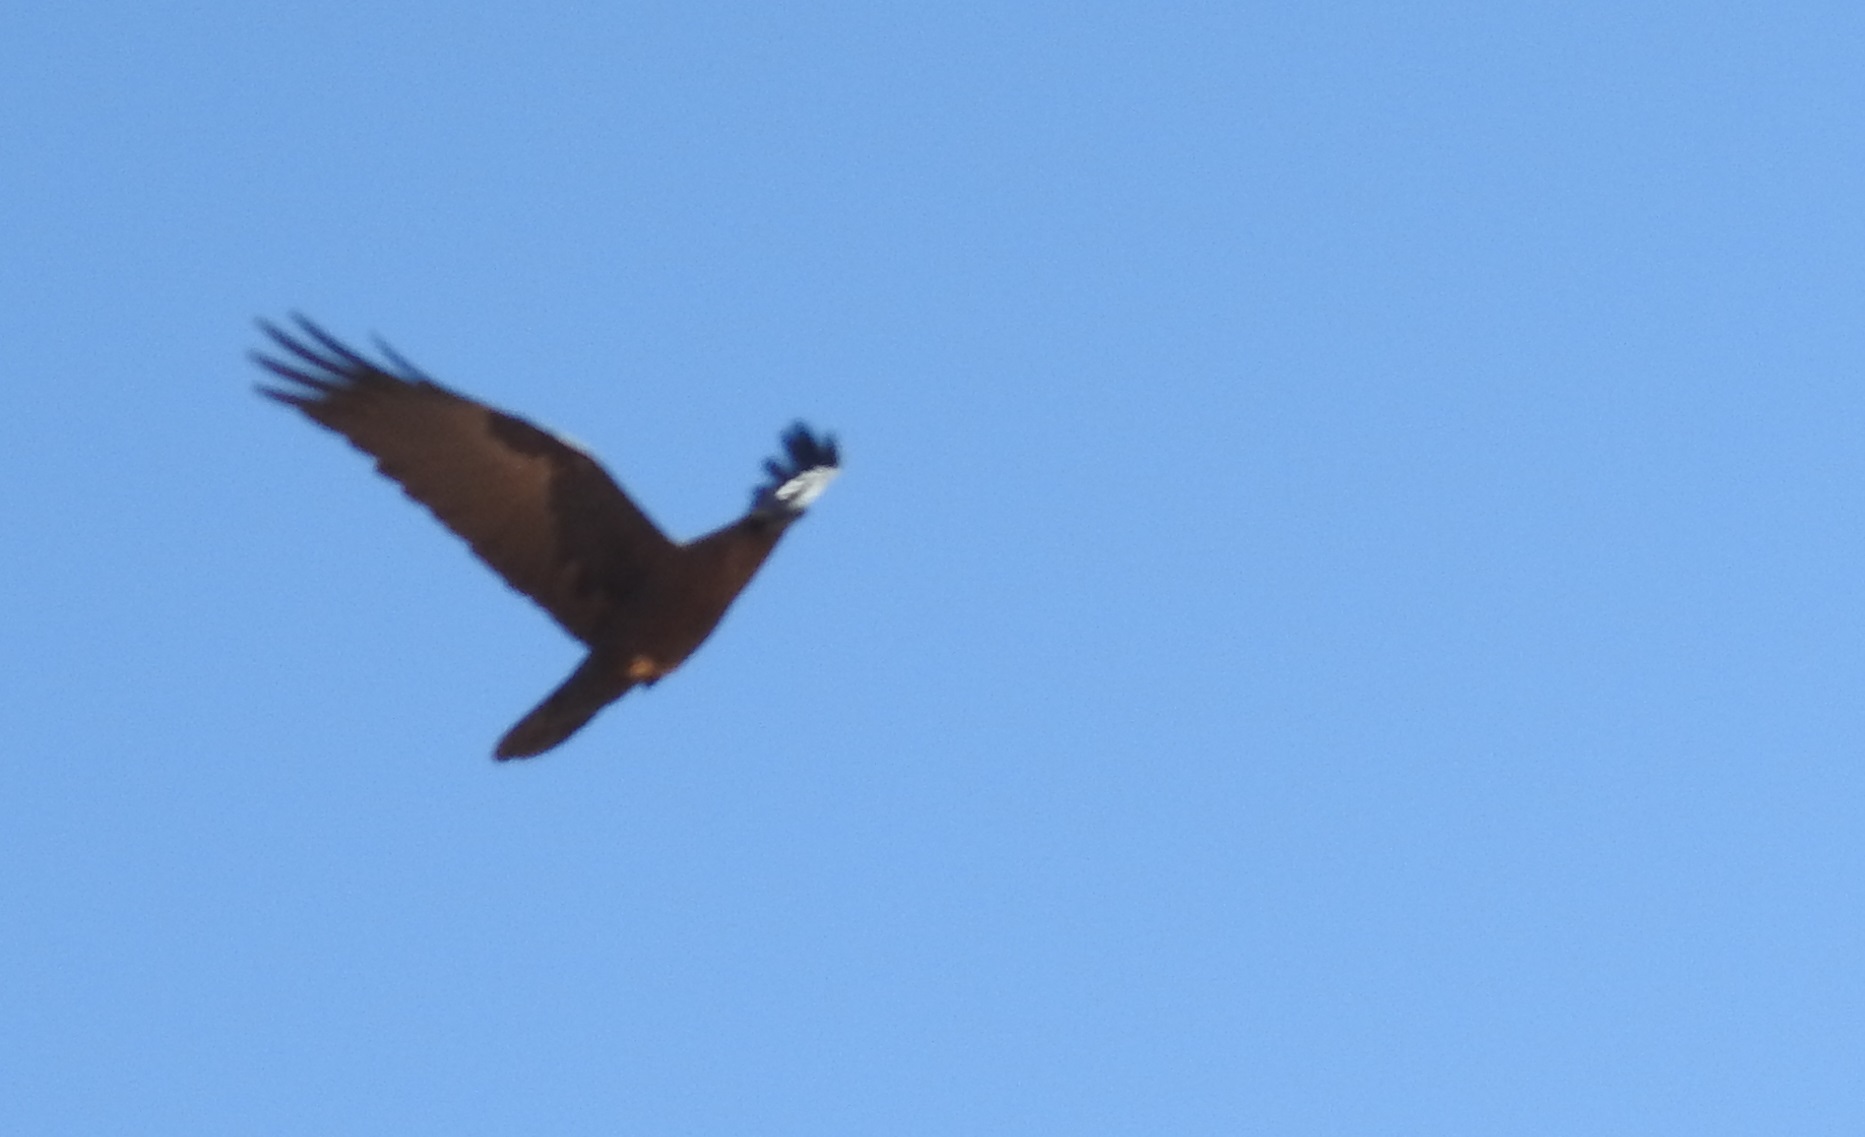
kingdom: Animalia
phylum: Chordata
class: Aves
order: Passeriformes
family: Corvidae
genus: Corvus
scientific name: Corvus ruficollis
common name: Brown-necked raven
